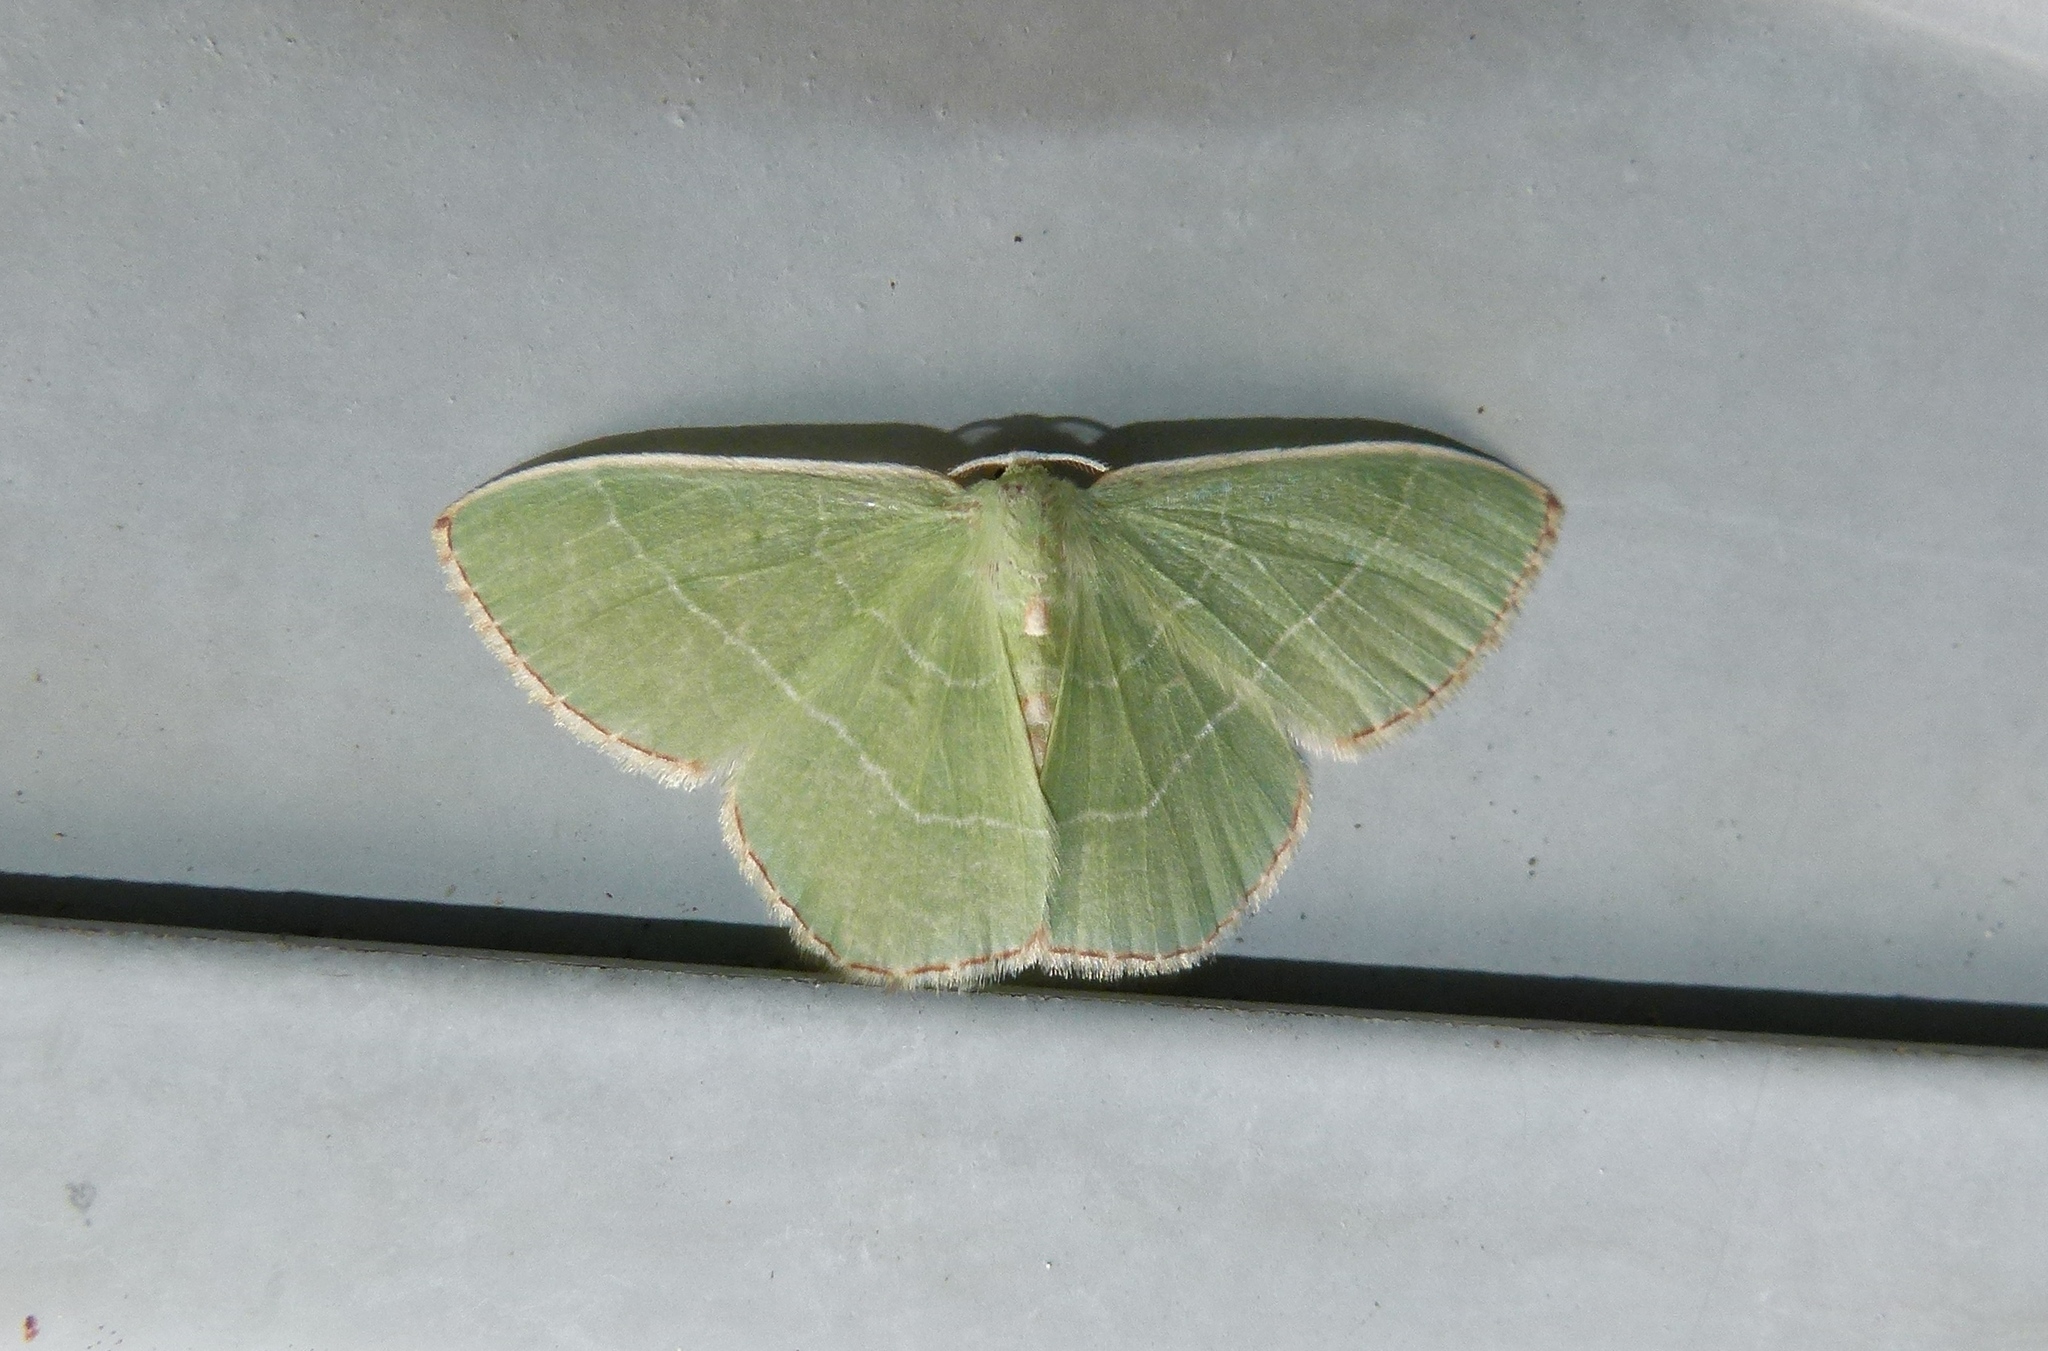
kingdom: Animalia
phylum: Arthropoda
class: Insecta
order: Lepidoptera
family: Geometridae
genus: Nemoria
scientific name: Nemoria bistriaria
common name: Red-fringed emerald
